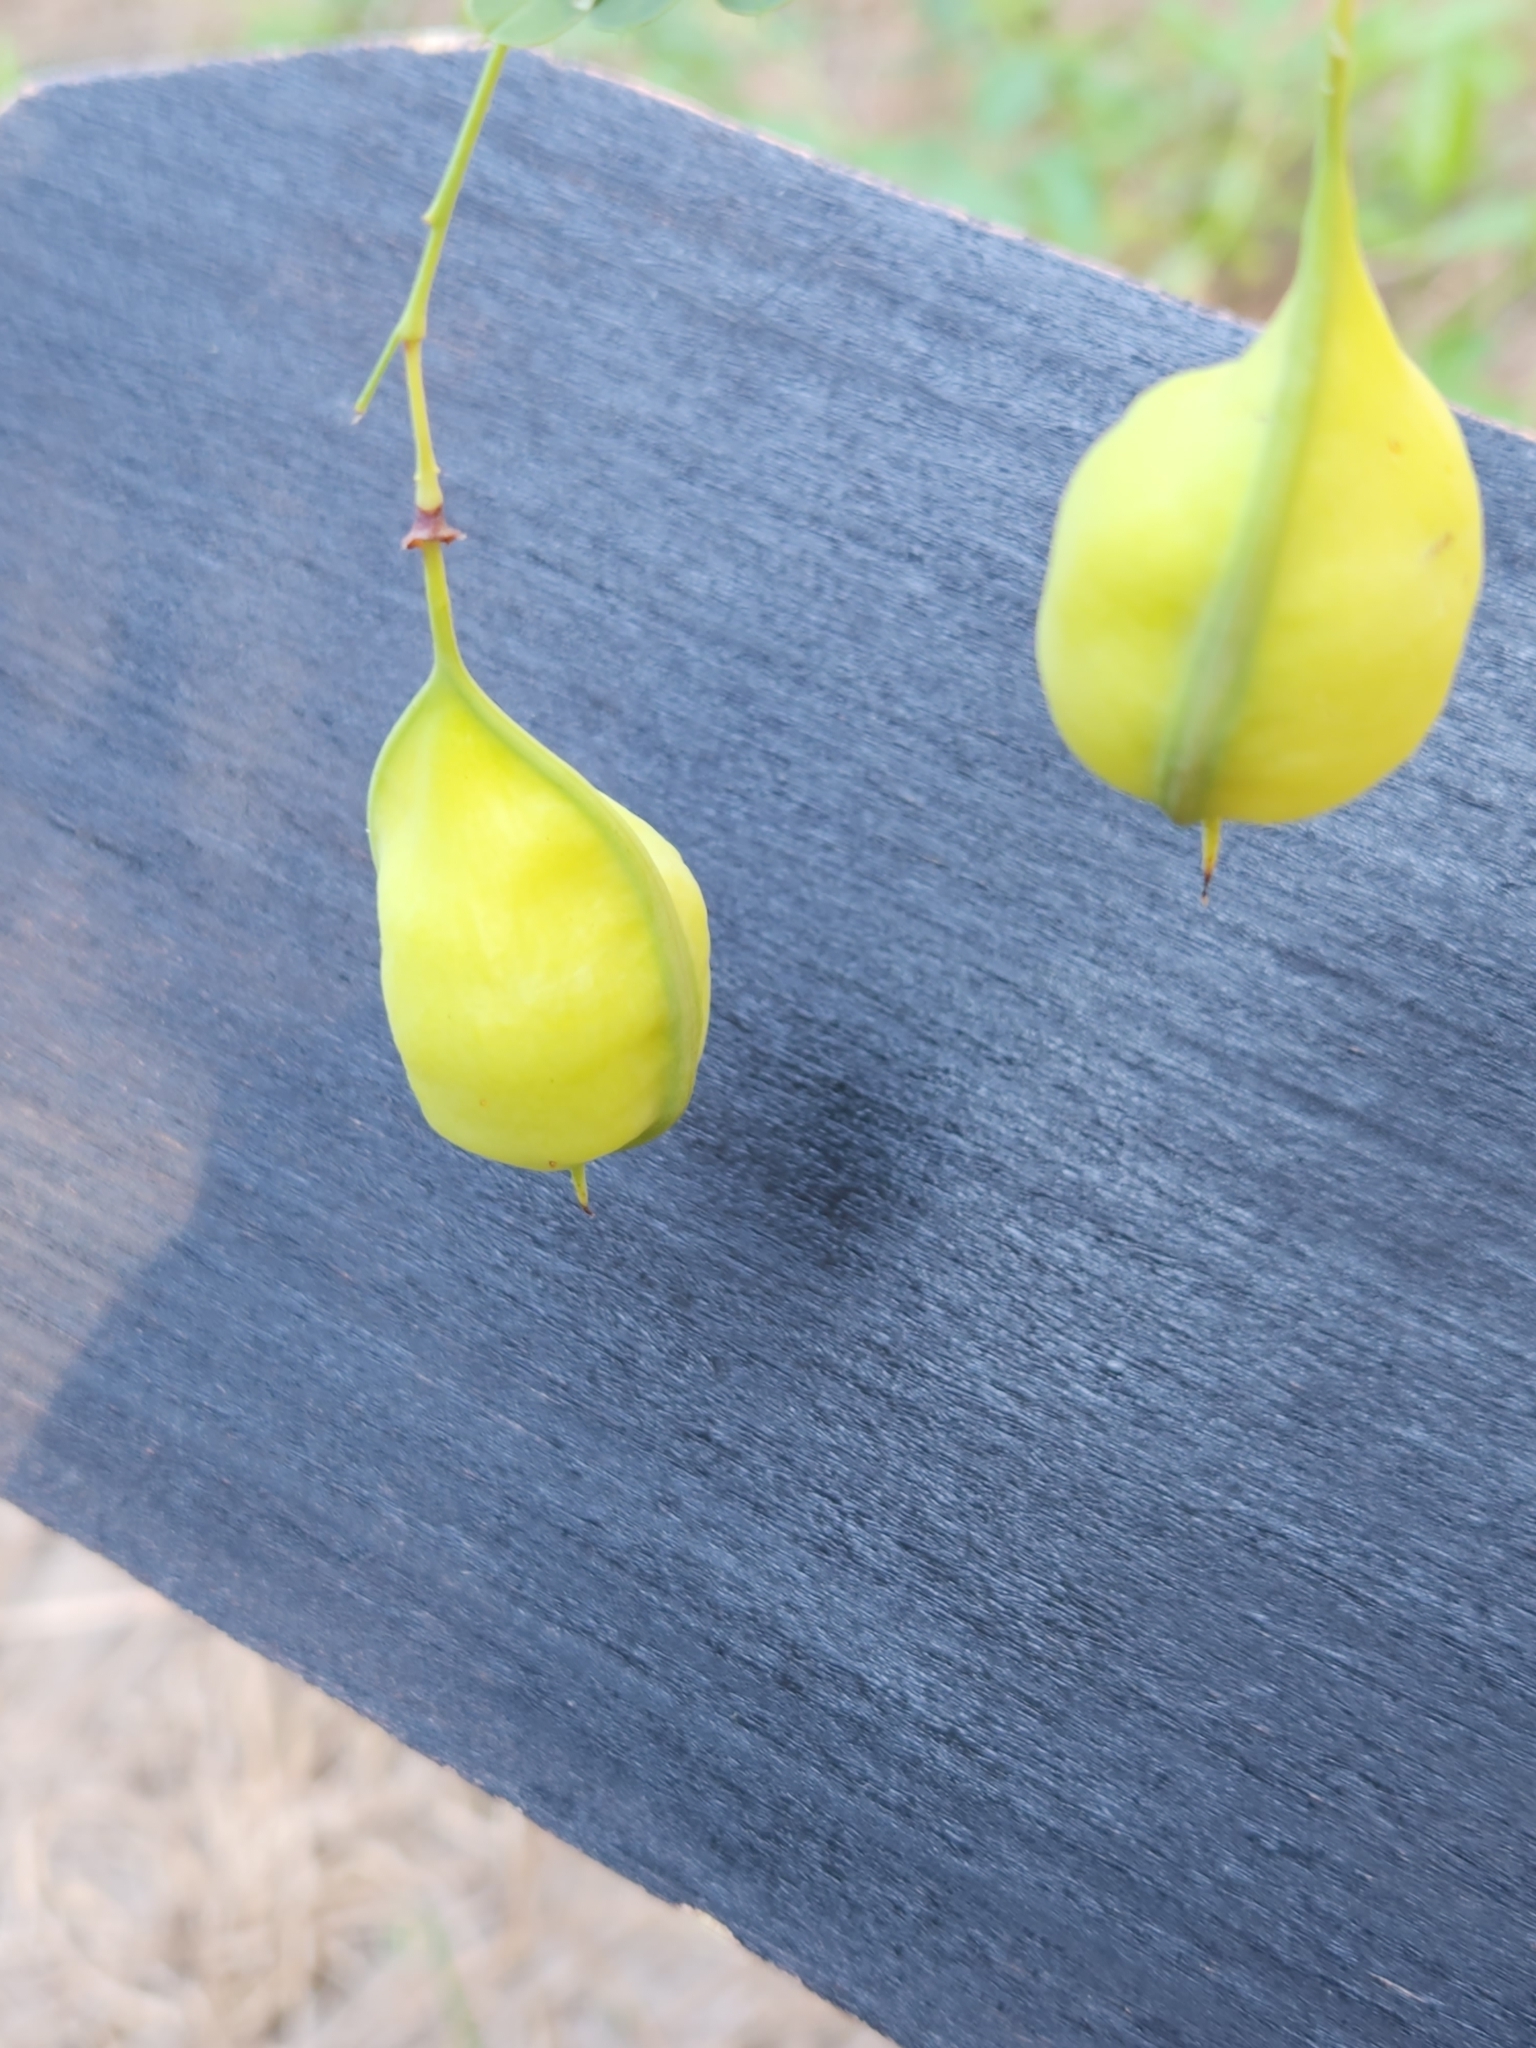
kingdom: Plantae
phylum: Tracheophyta
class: Magnoliopsida
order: Fabales
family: Fabaceae
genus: Sesbania
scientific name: Sesbania vesicaria
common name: Bagpod
